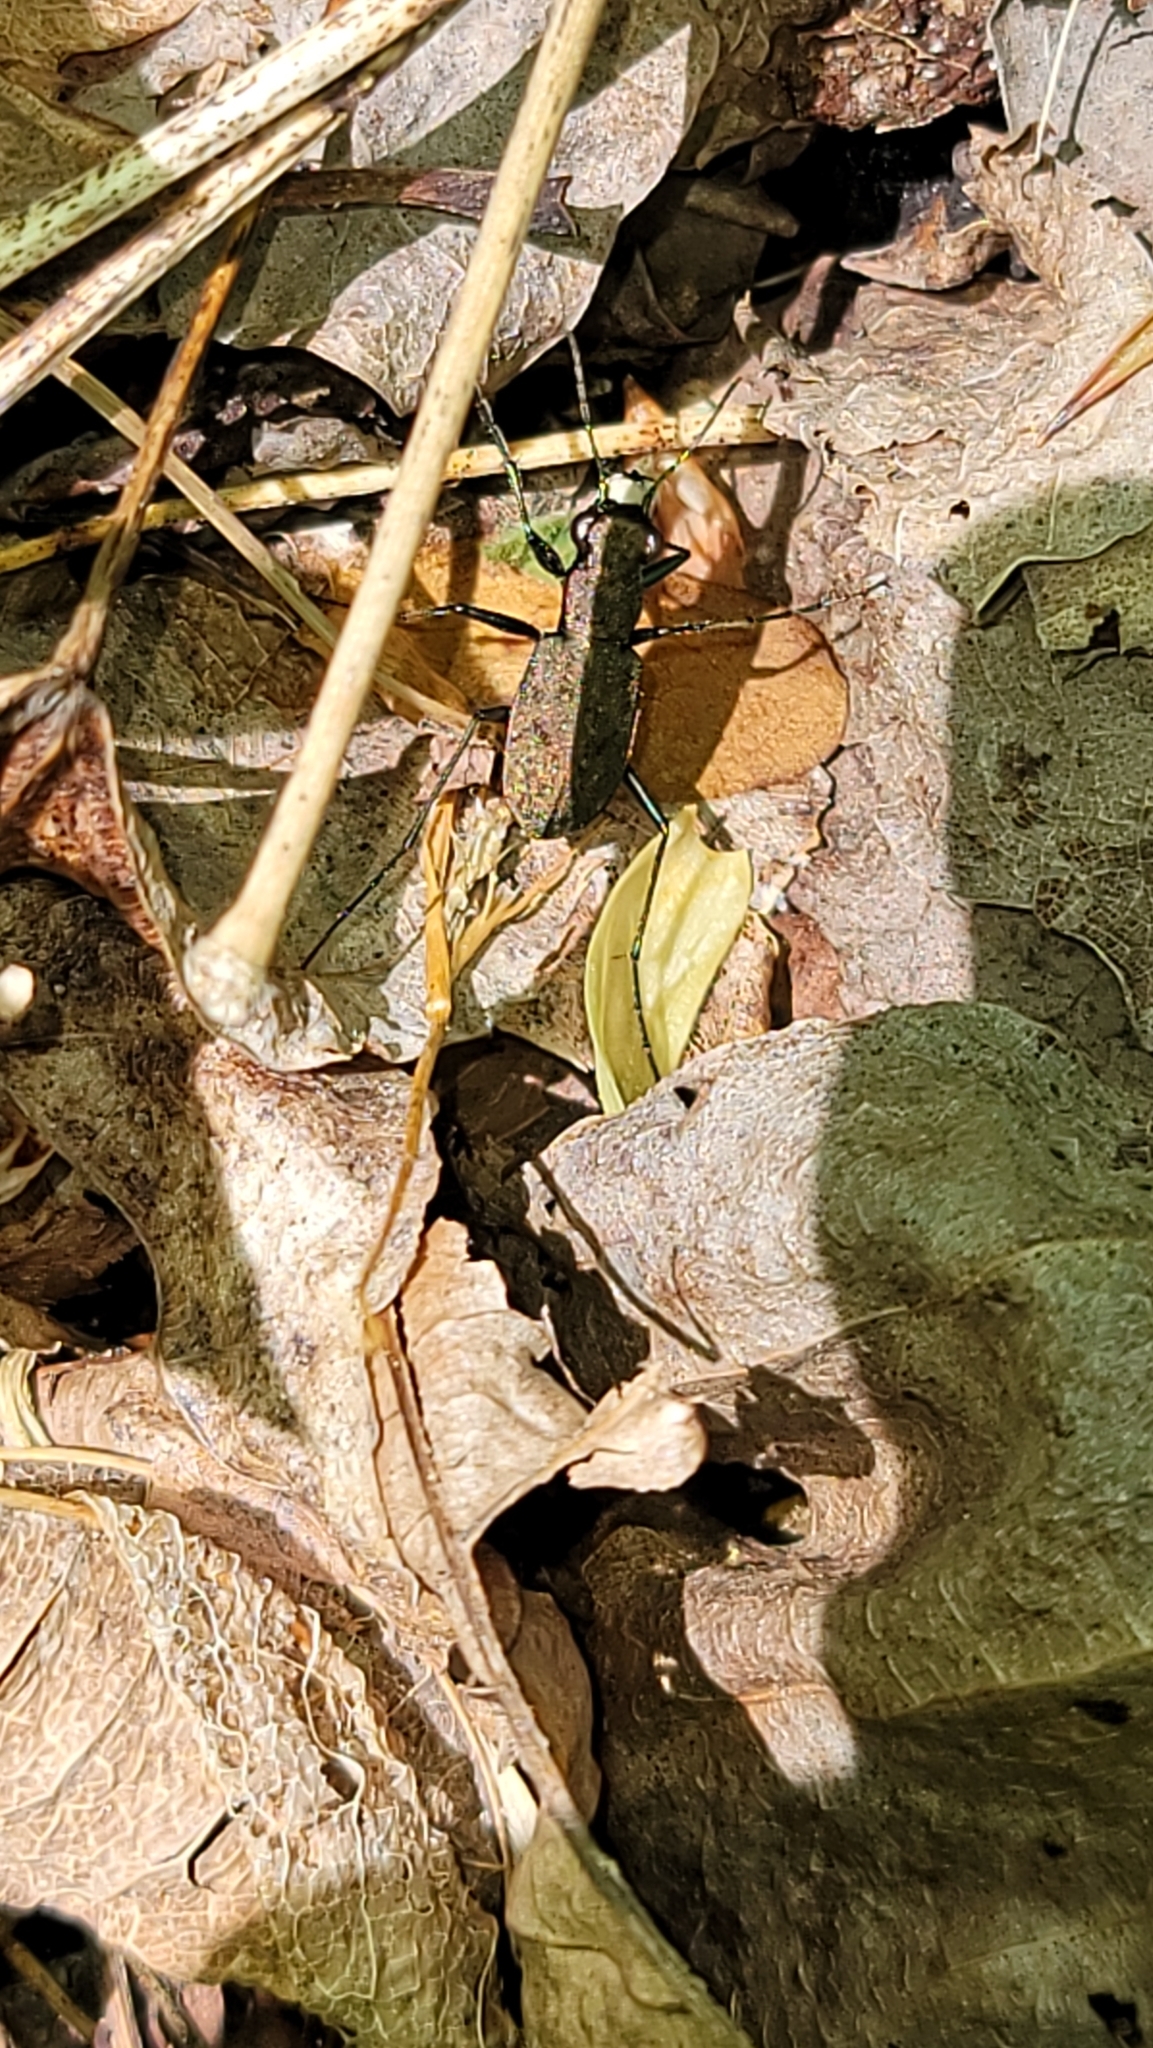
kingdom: Animalia
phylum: Arthropoda
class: Insecta
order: Coleoptera
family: Carabidae
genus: Cylindera
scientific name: Cylindera unipunctata
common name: One-spotted tiger beetle
